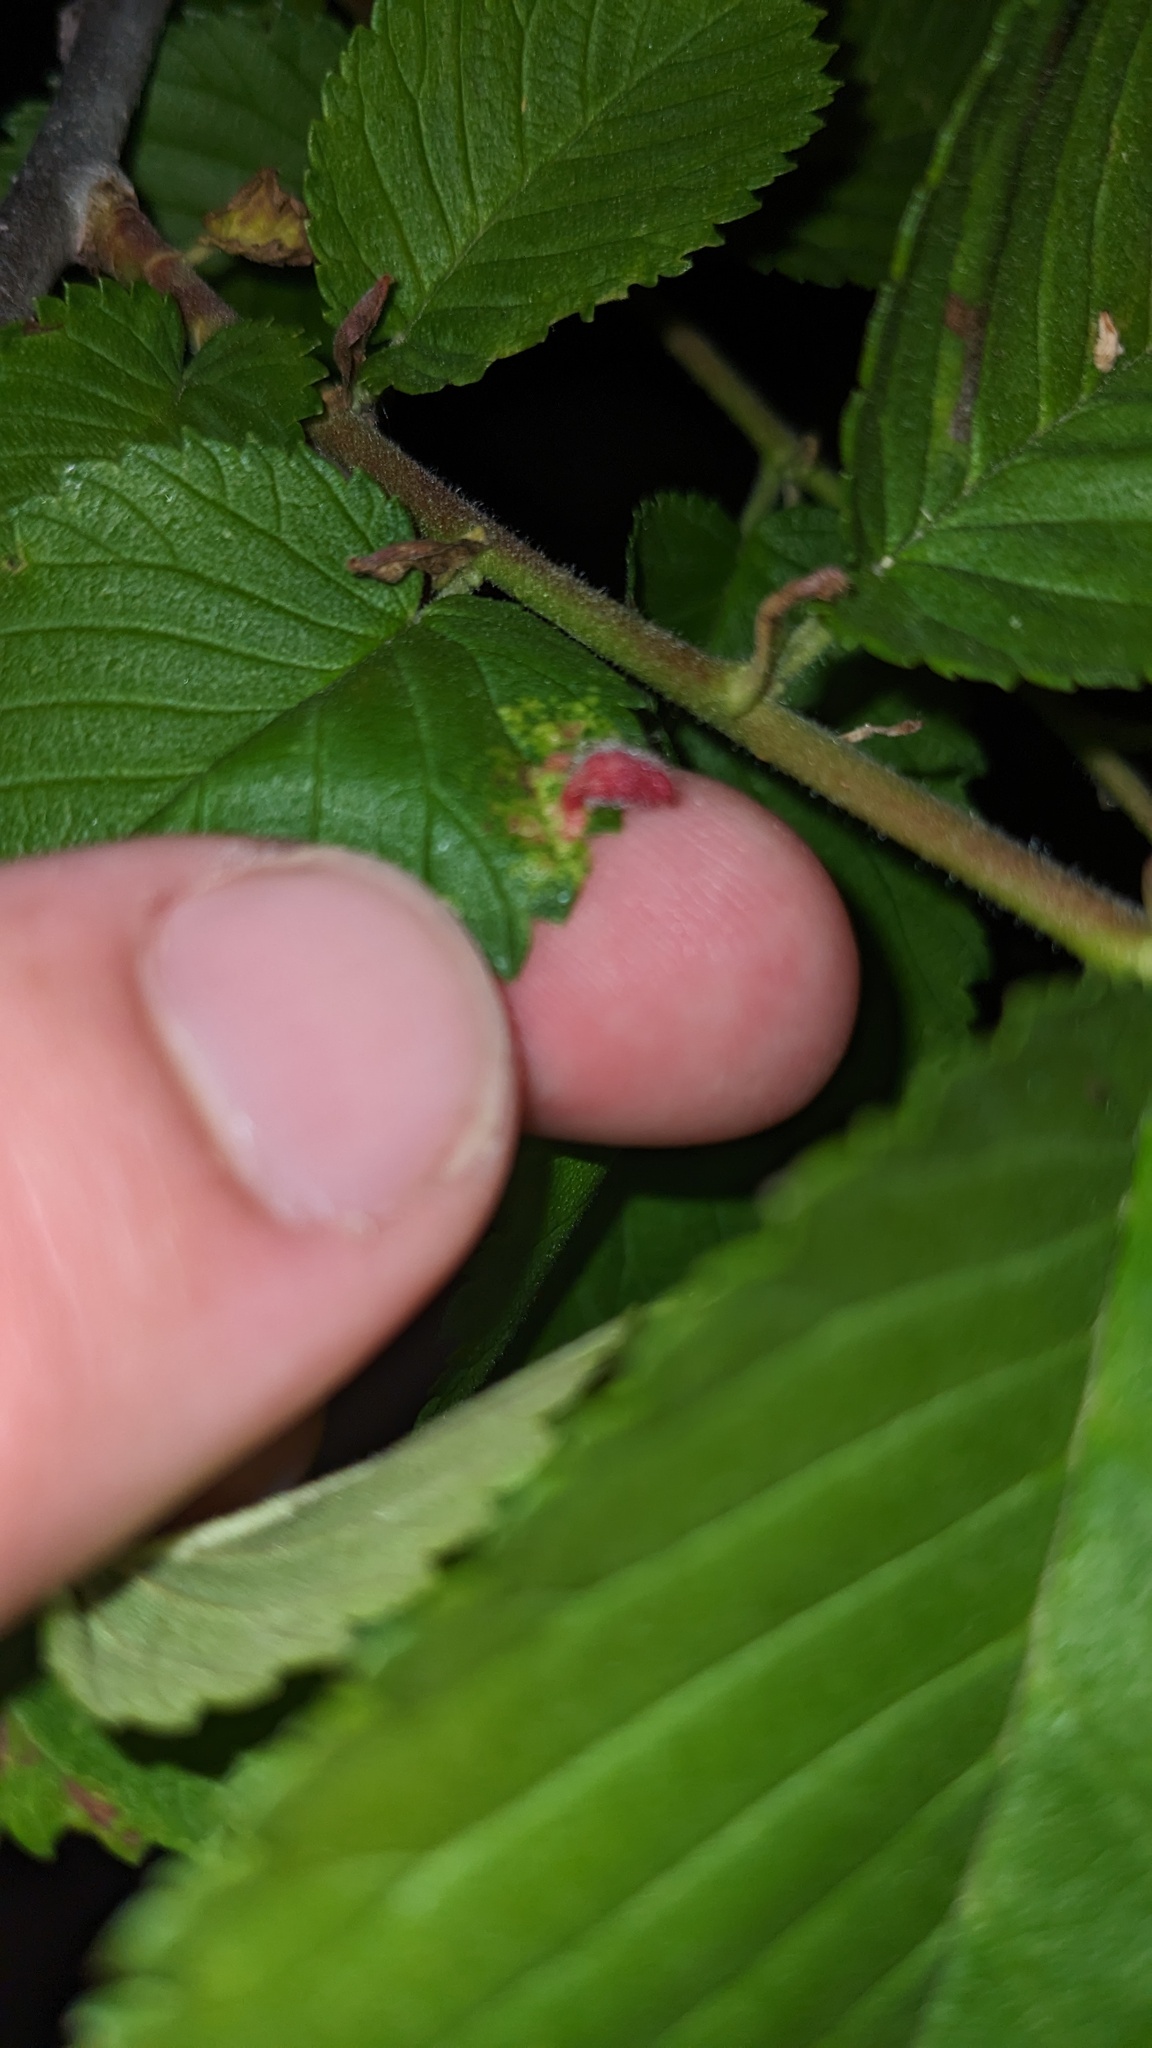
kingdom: Animalia
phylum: Arthropoda
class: Insecta
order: Hemiptera
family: Aphididae
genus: Tetraneura
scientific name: Tetraneura nigriabdominalis
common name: Aphid
